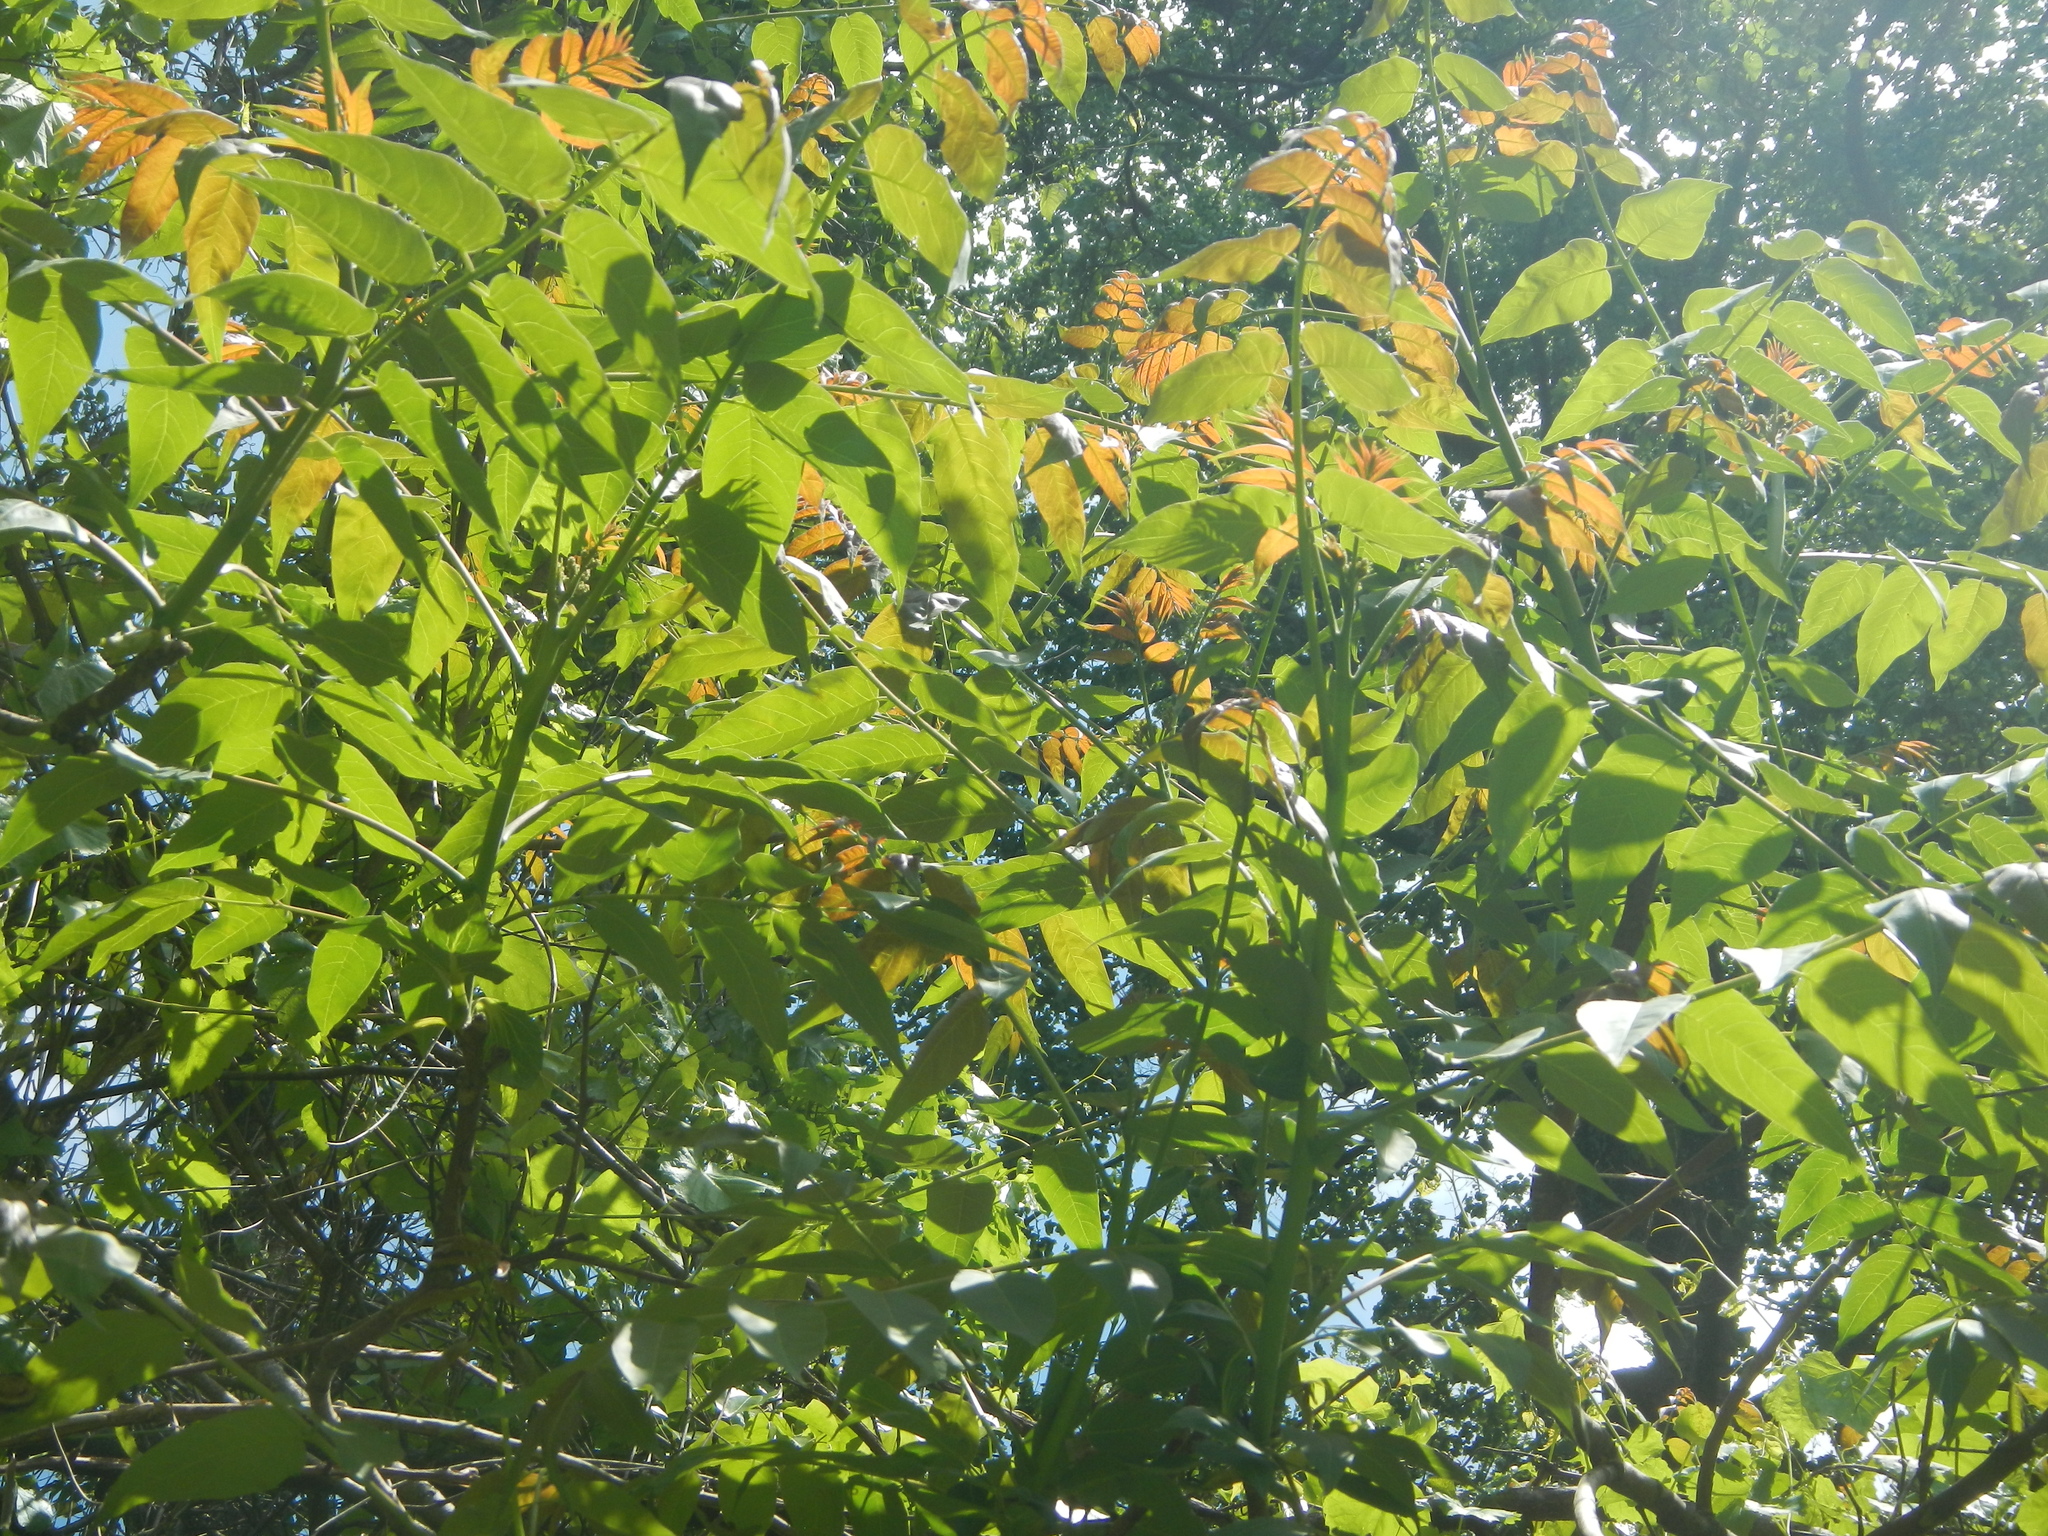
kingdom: Plantae
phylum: Tracheophyta
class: Magnoliopsida
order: Sapindales
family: Simaroubaceae
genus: Ailanthus
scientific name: Ailanthus altissima
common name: Tree-of-heaven
